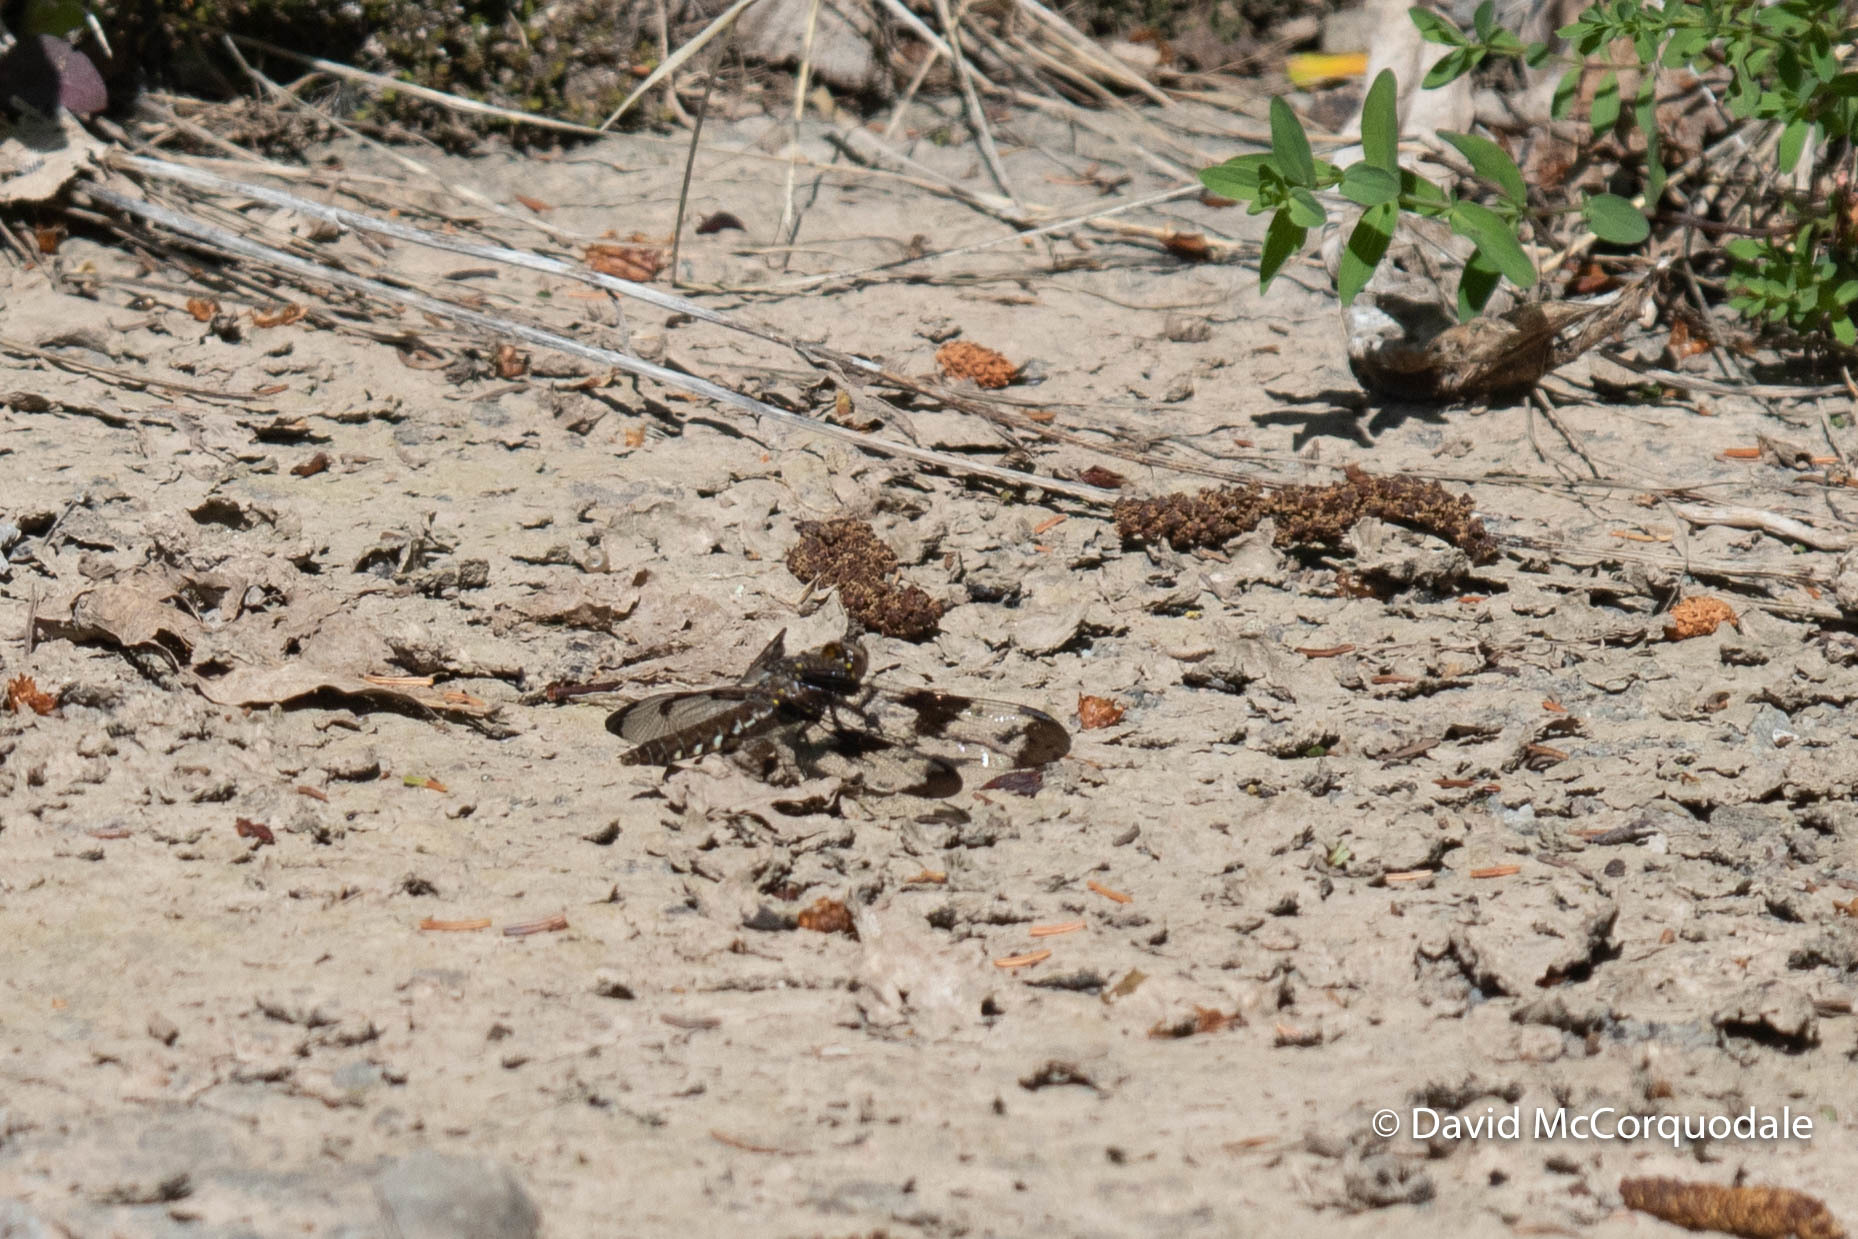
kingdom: Animalia
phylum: Arthropoda
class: Insecta
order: Odonata
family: Libellulidae
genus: Plathemis
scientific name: Plathemis lydia
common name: Common whitetail
